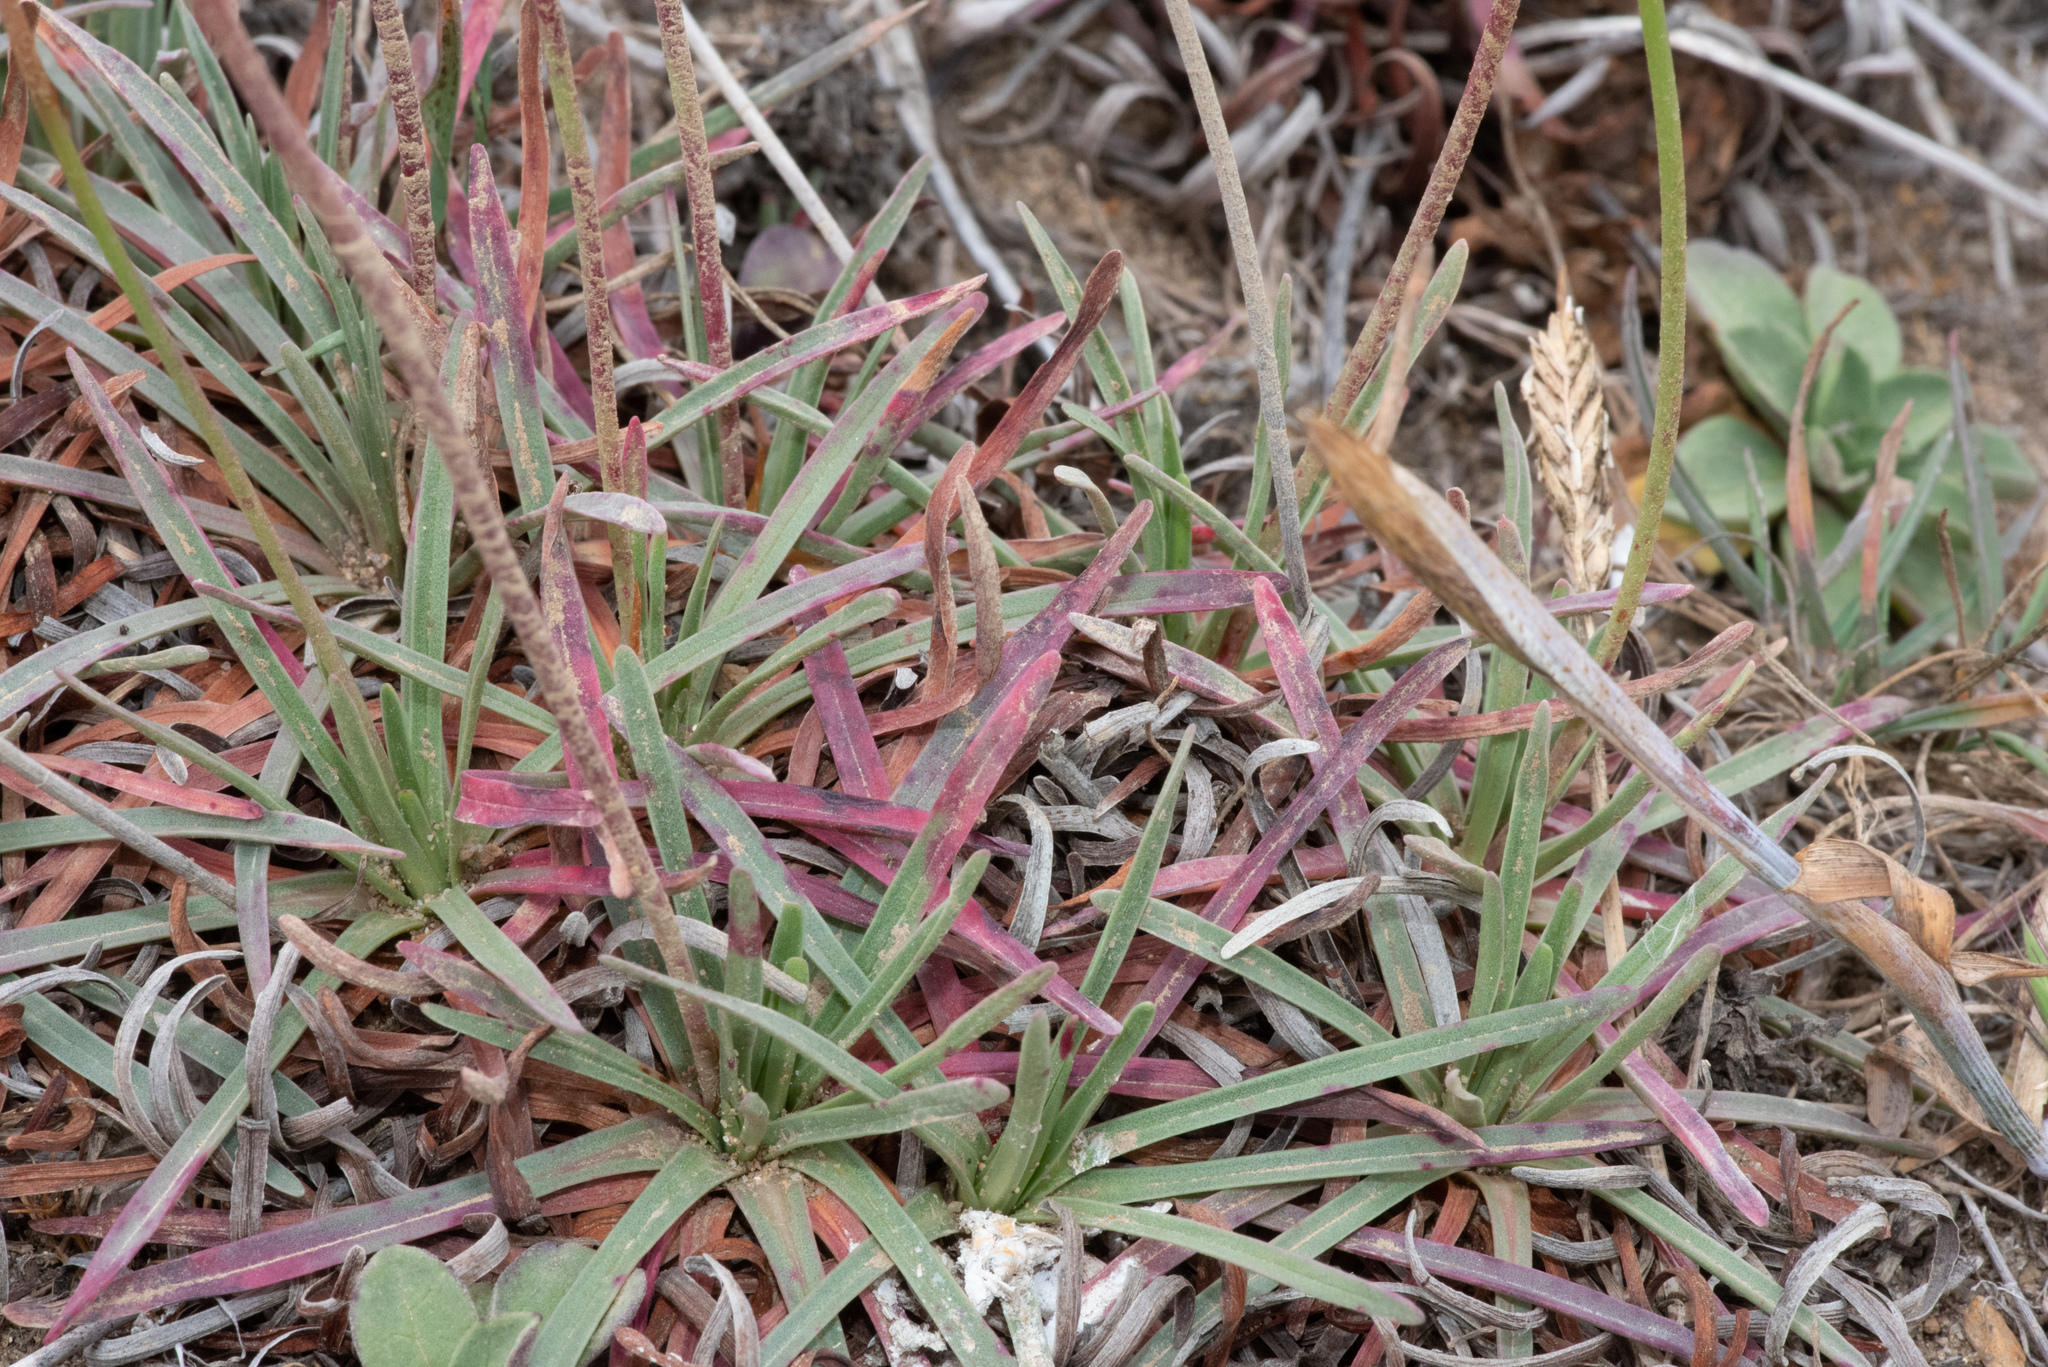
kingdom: Plantae
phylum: Tracheophyta
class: Magnoliopsida
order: Caryophyllales
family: Plumbaginaceae
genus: Armeria
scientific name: Armeria maritima
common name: Thrift
